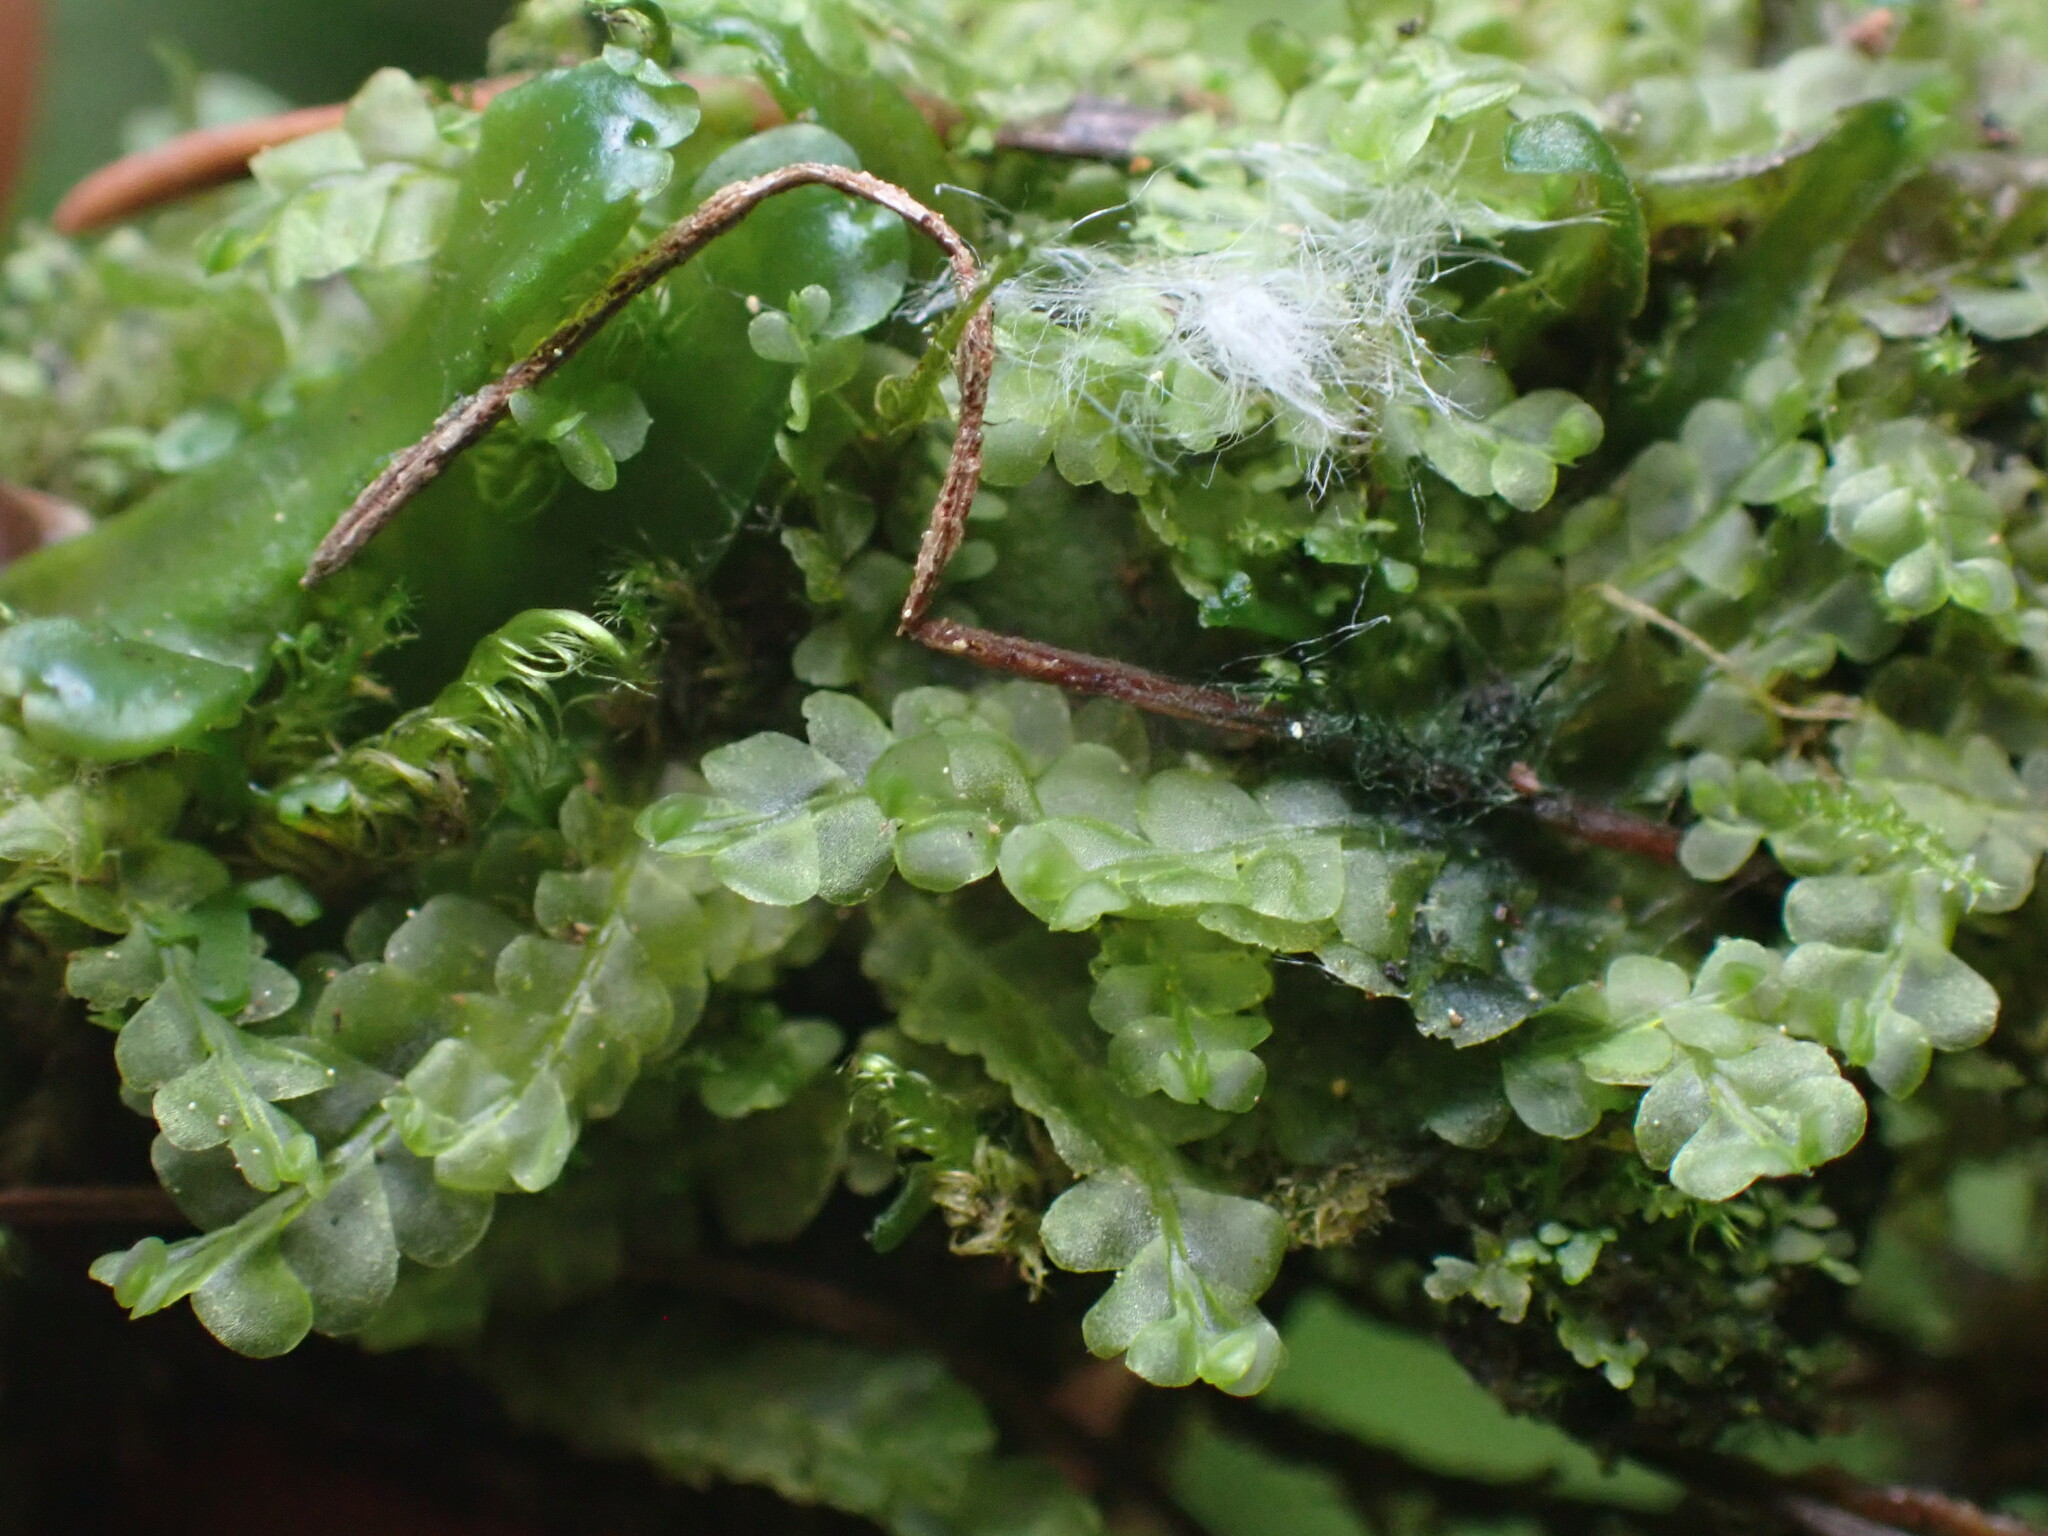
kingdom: Plantae
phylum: Marchantiophyta
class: Jungermanniopsida
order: Jungermanniales
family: Lophocoleaceae
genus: Chiloscyphus
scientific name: Chiloscyphus polyanthos
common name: Square-leaved crestwort
